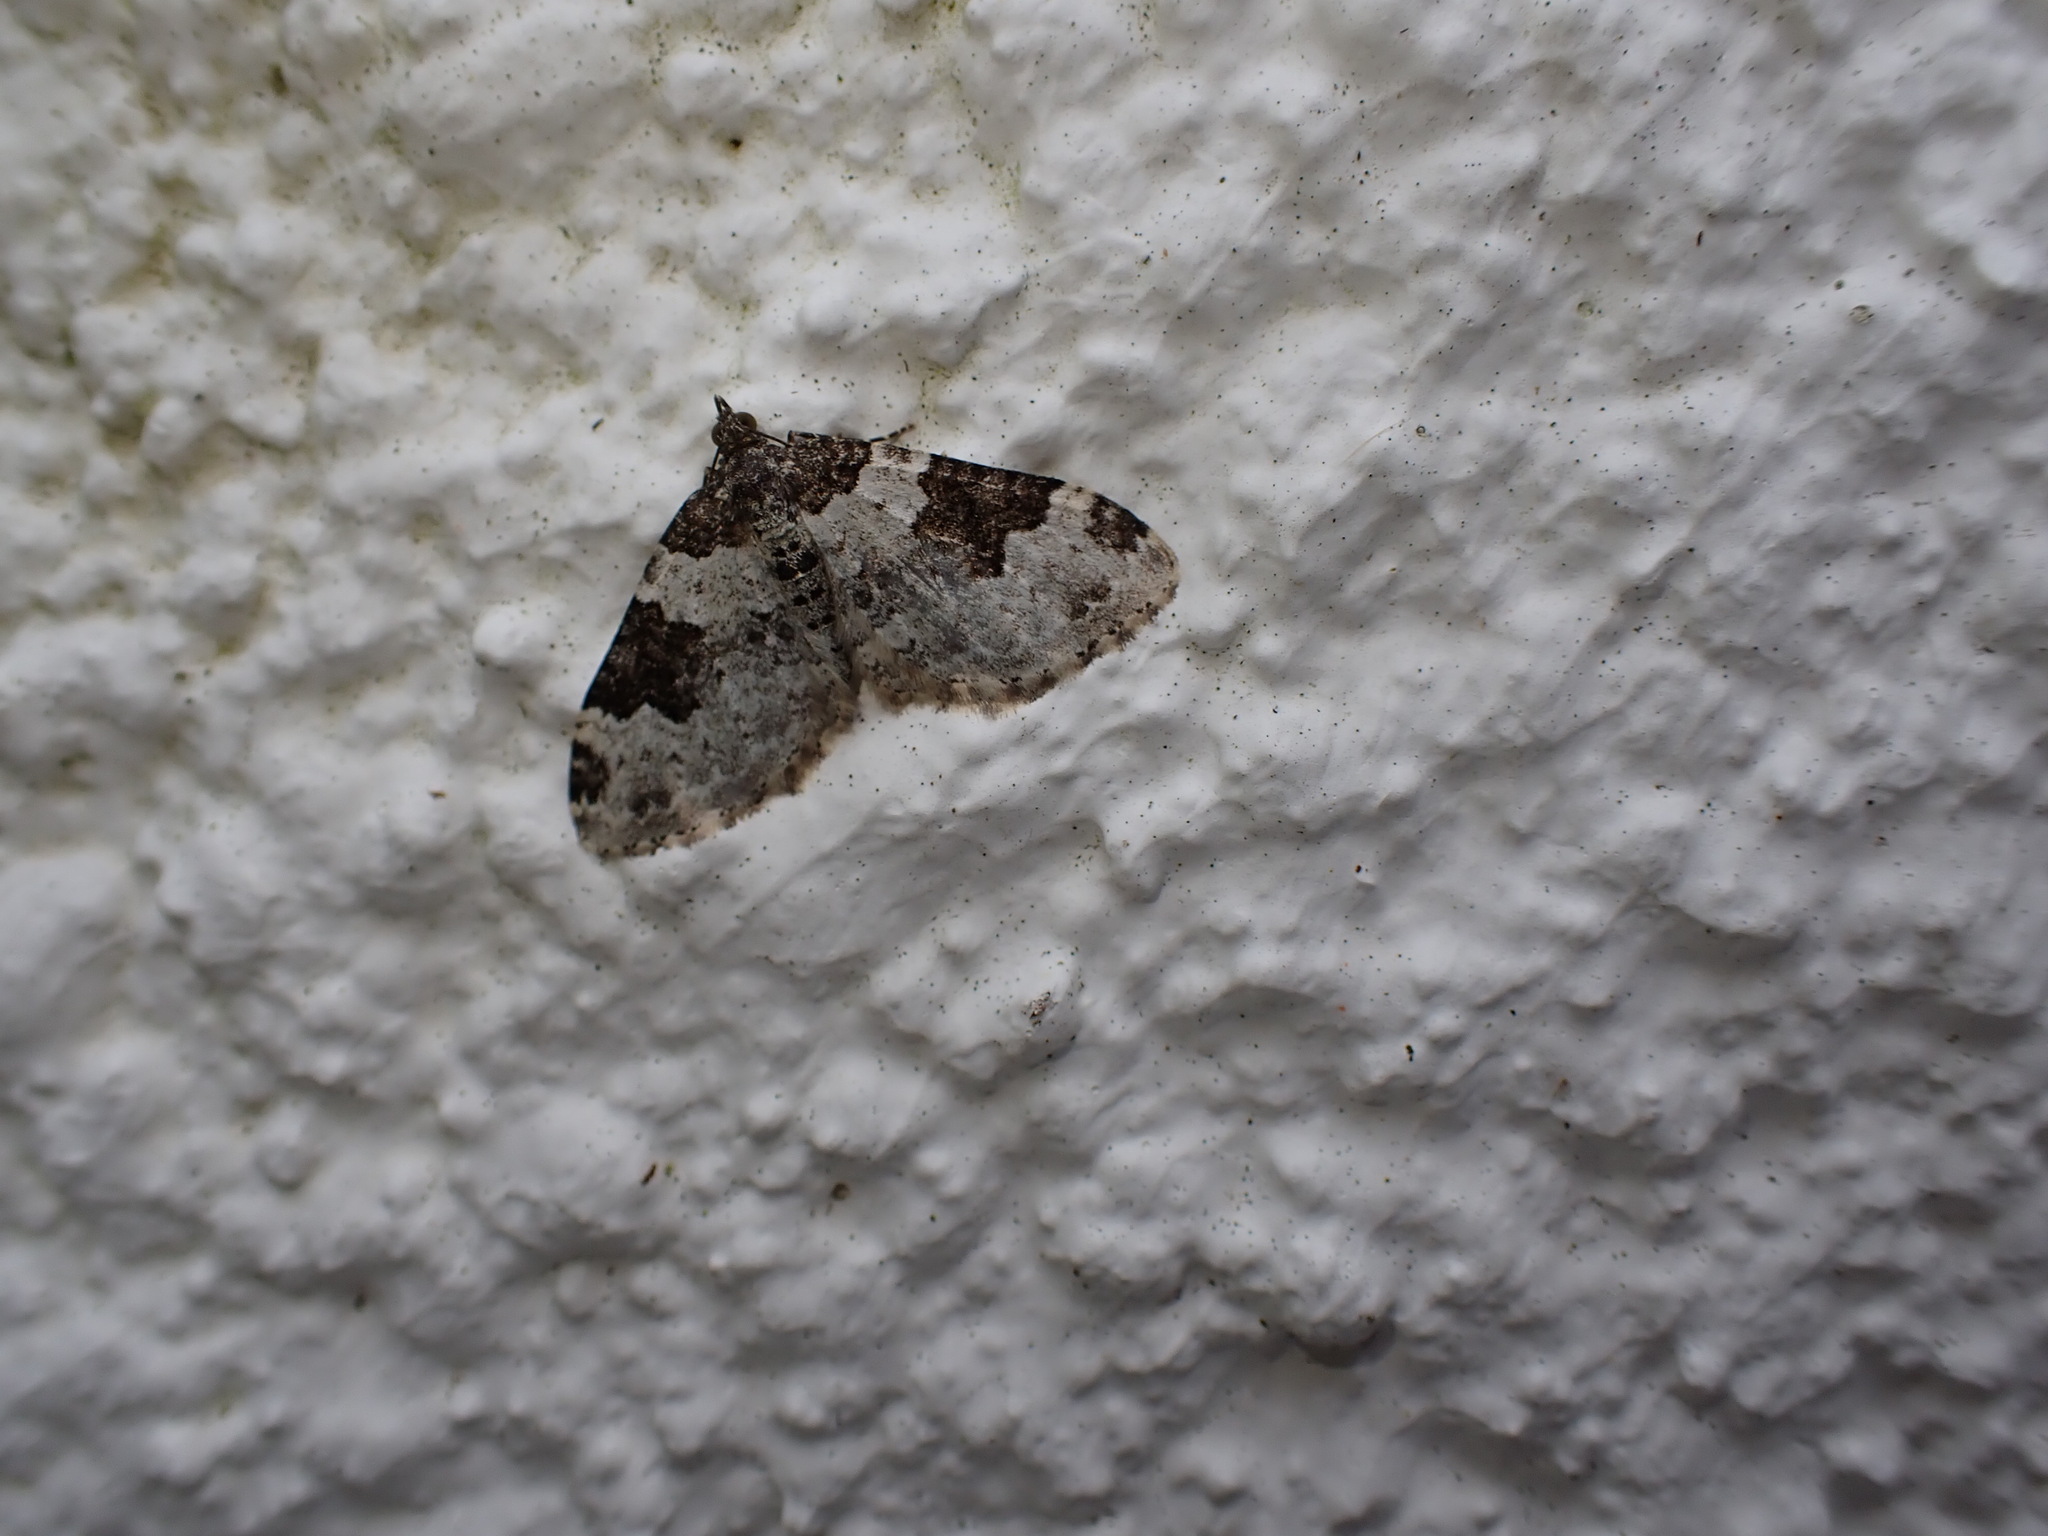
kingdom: Animalia
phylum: Arthropoda
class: Insecta
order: Lepidoptera
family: Geometridae
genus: Xanthorhoe
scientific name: Xanthorhoe fluctuata
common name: Garden carpet
